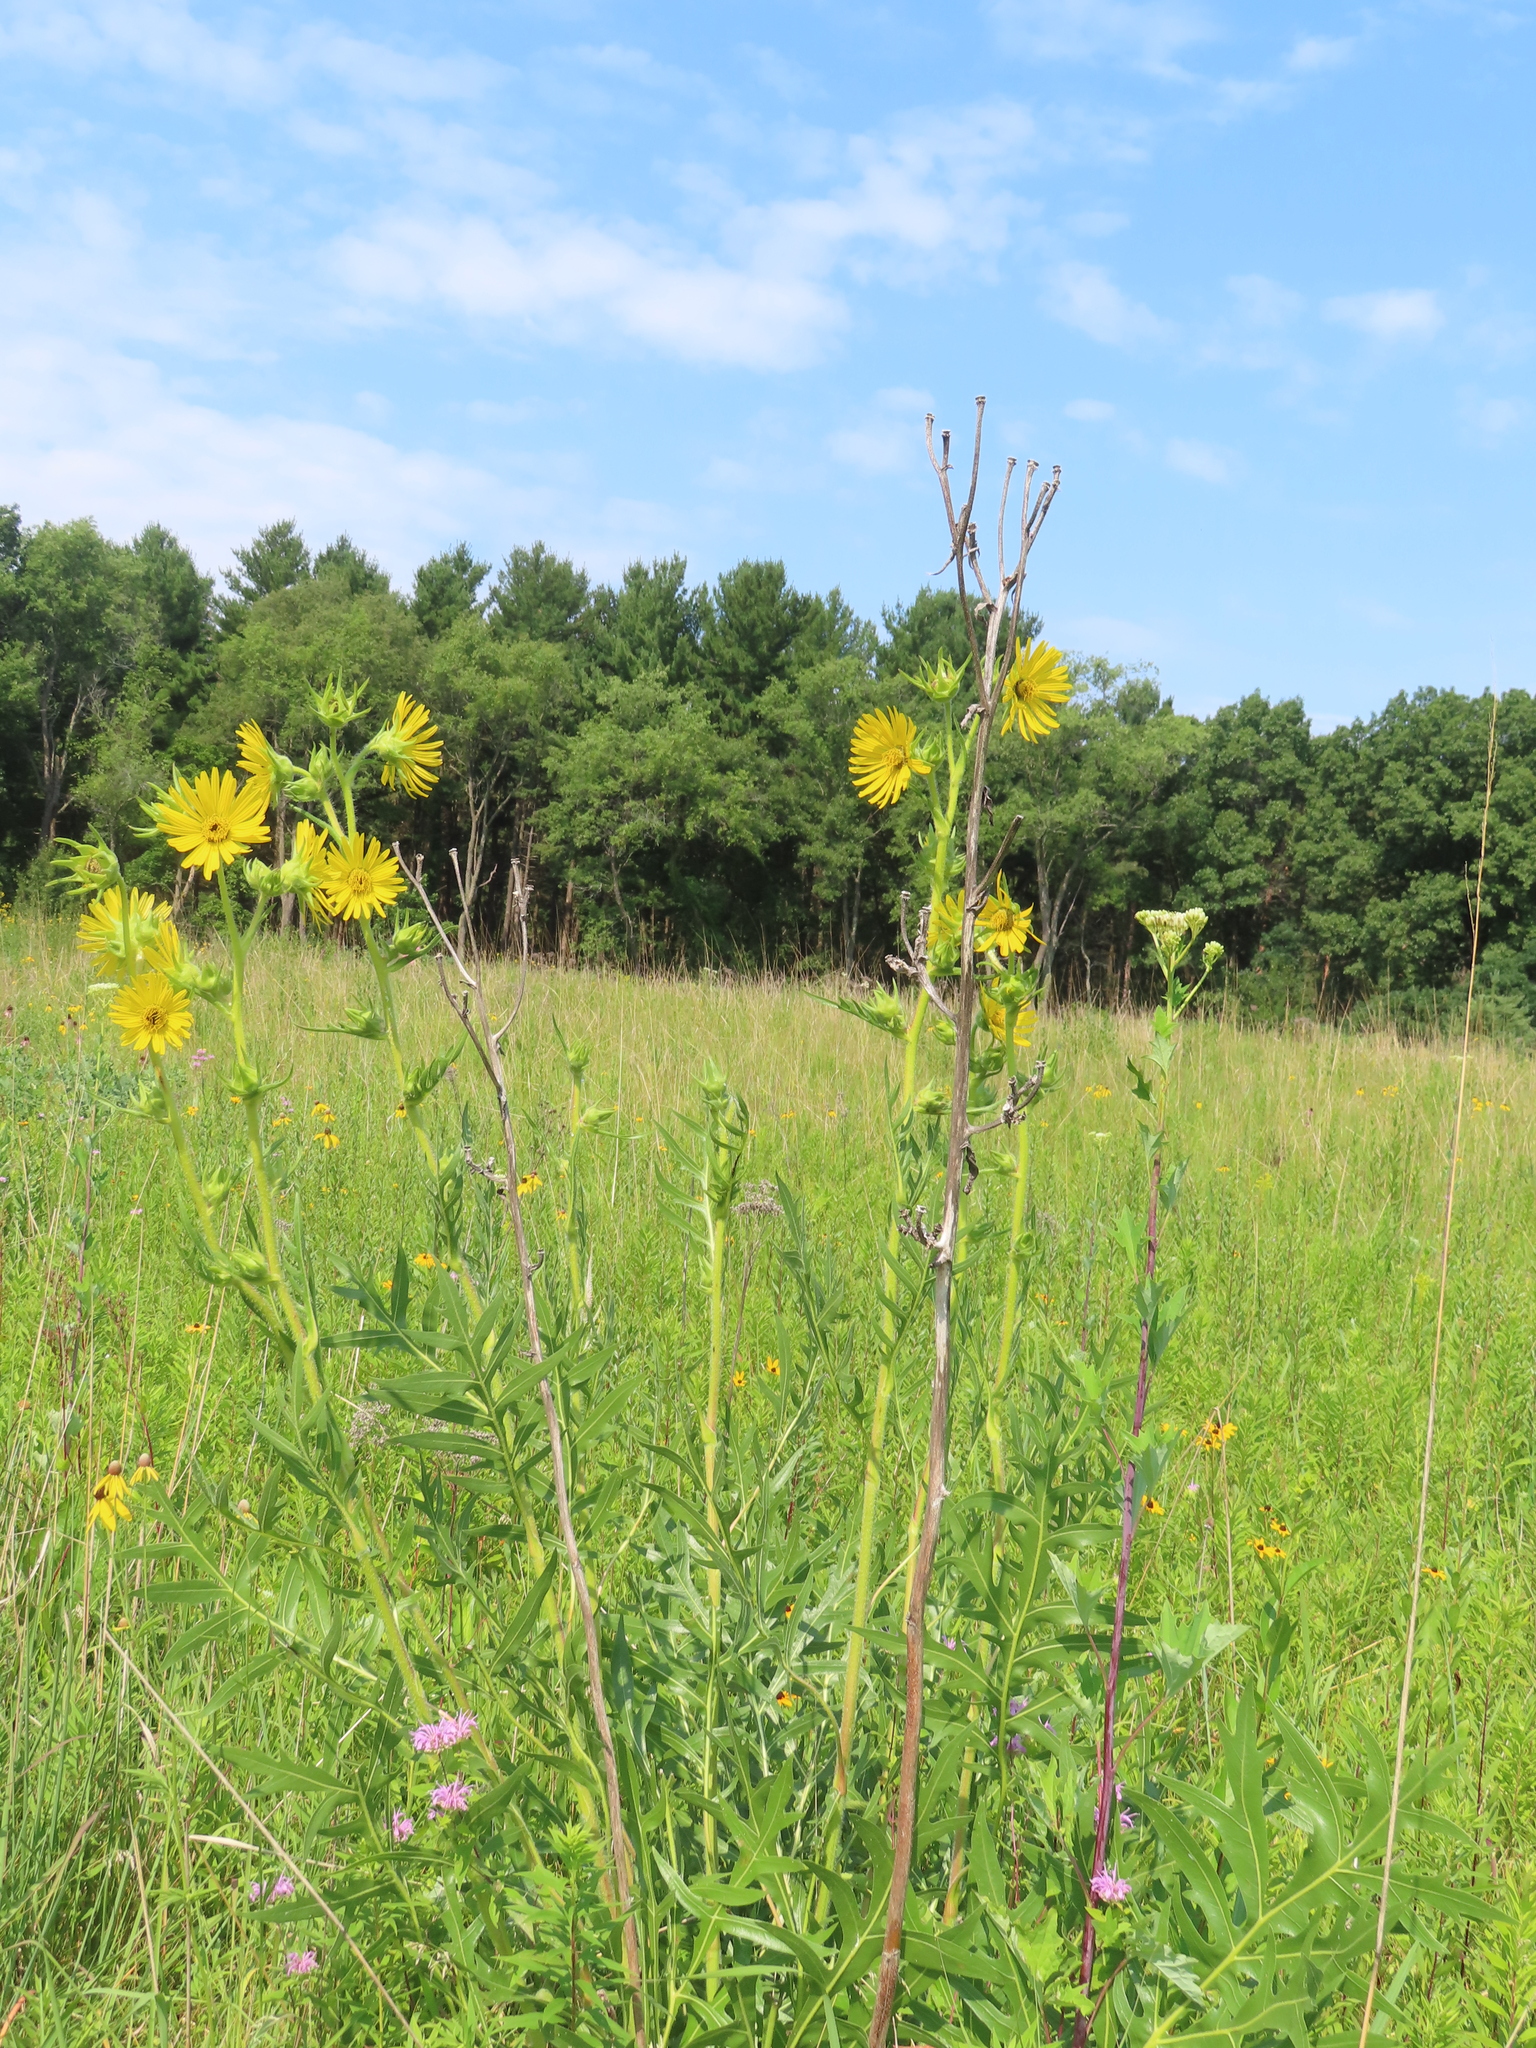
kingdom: Plantae
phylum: Tracheophyta
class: Magnoliopsida
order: Asterales
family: Asteraceae
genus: Silphium
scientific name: Silphium laciniatum
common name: Polarplant
